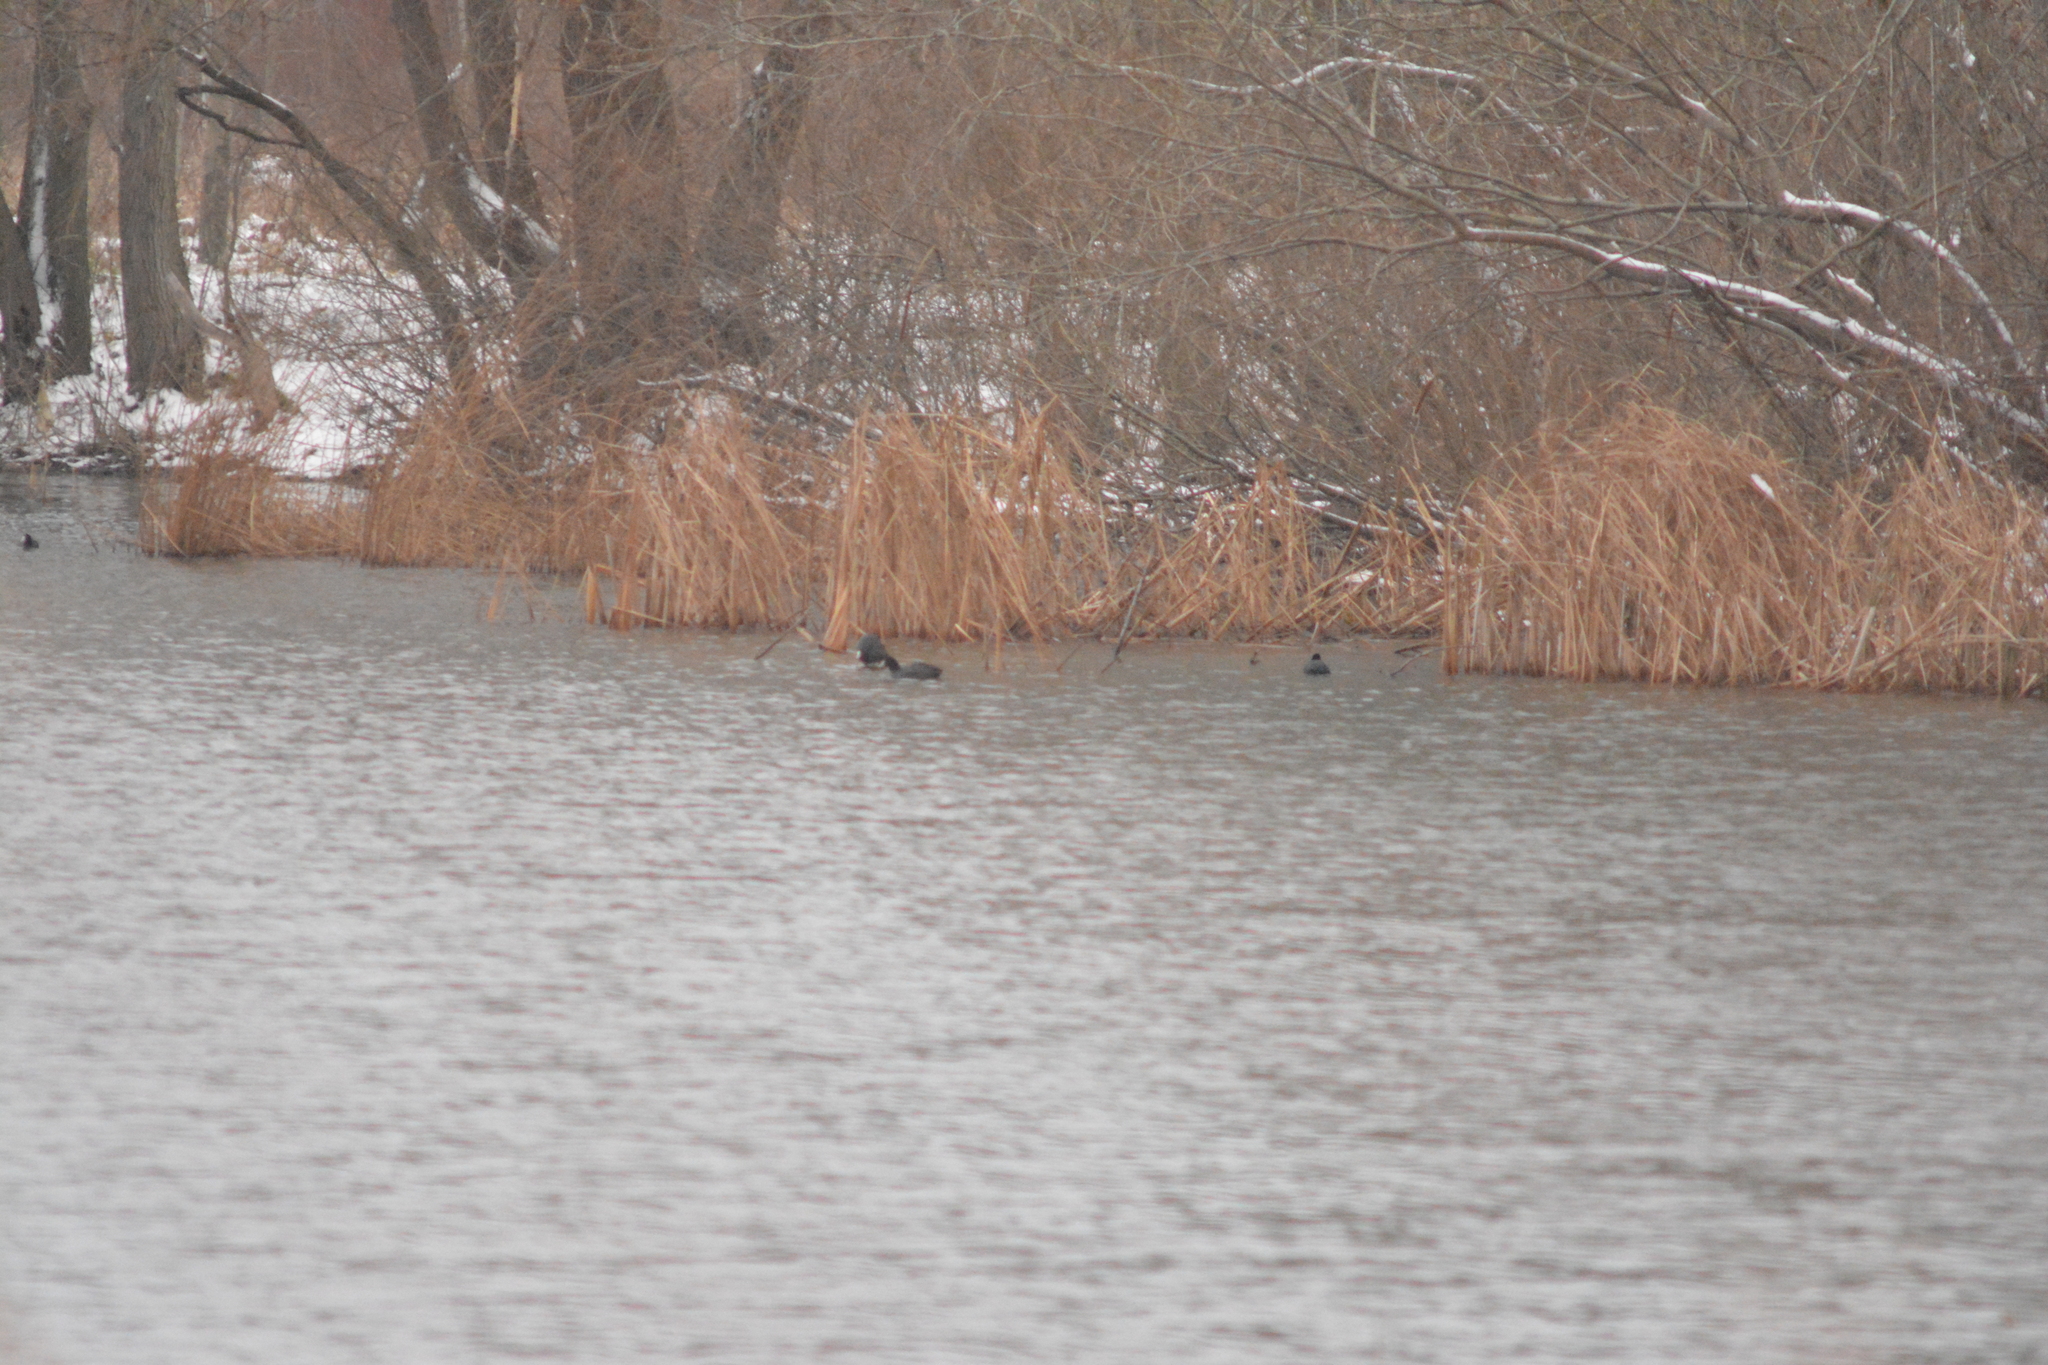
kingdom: Animalia
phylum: Chordata
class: Aves
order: Gruiformes
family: Rallidae
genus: Fulica
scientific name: Fulica atra
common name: Eurasian coot
